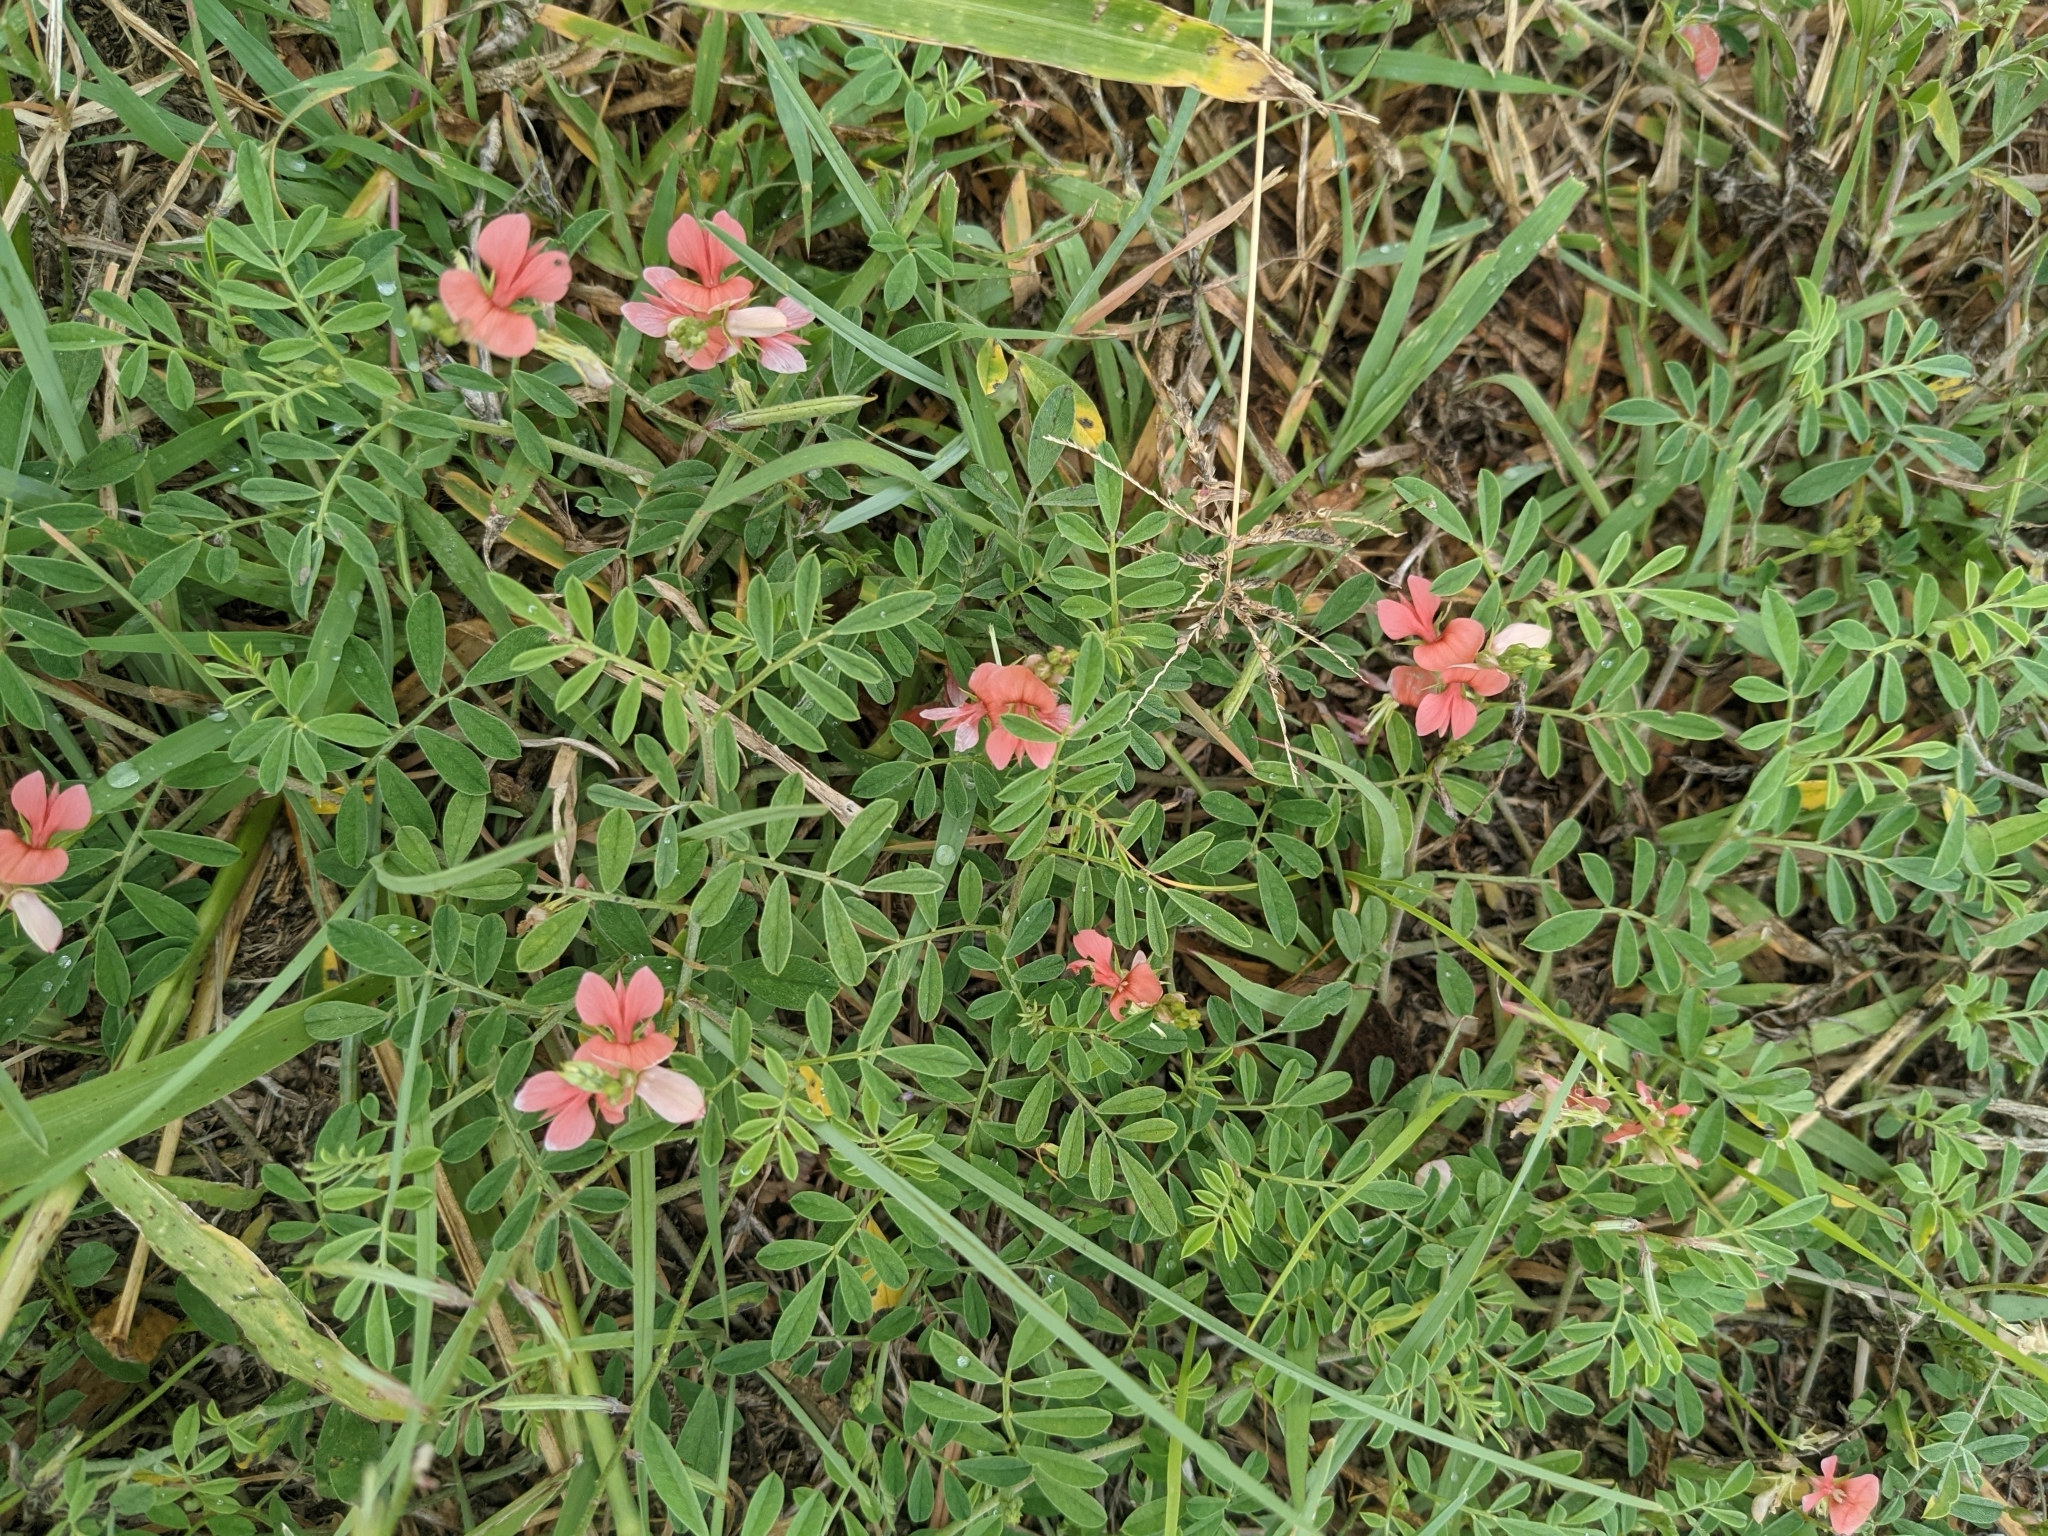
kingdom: Plantae
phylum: Tracheophyta
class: Magnoliopsida
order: Fabales
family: Fabaceae
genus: Indigofera
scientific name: Indigofera miniata
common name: Coast indigo
